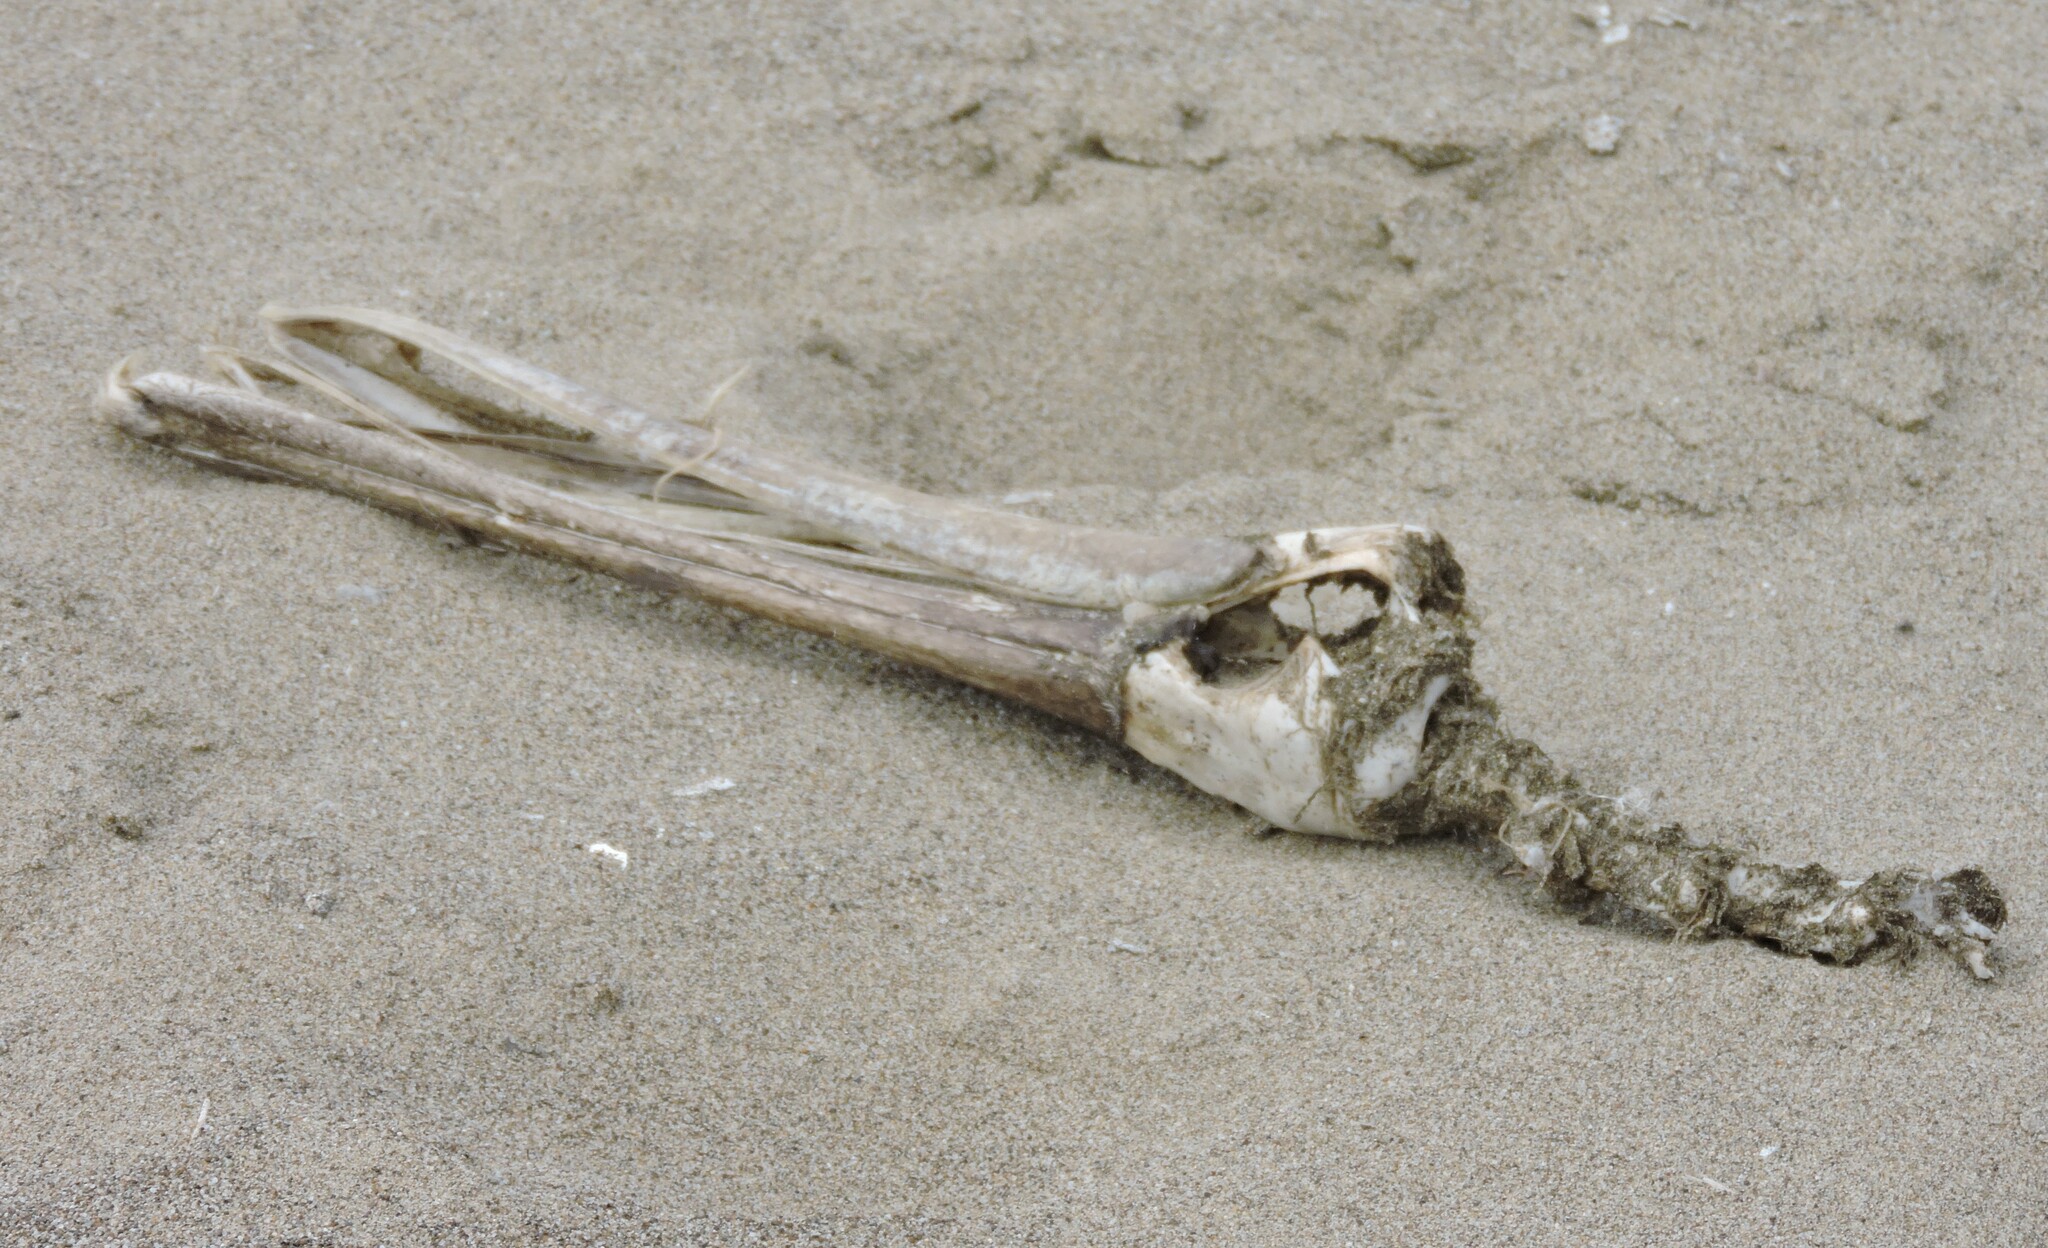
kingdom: Animalia
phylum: Chordata
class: Aves
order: Pelecaniformes
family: Pelecanidae
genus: Pelecanus
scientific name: Pelecanus occidentalis
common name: Brown pelican
